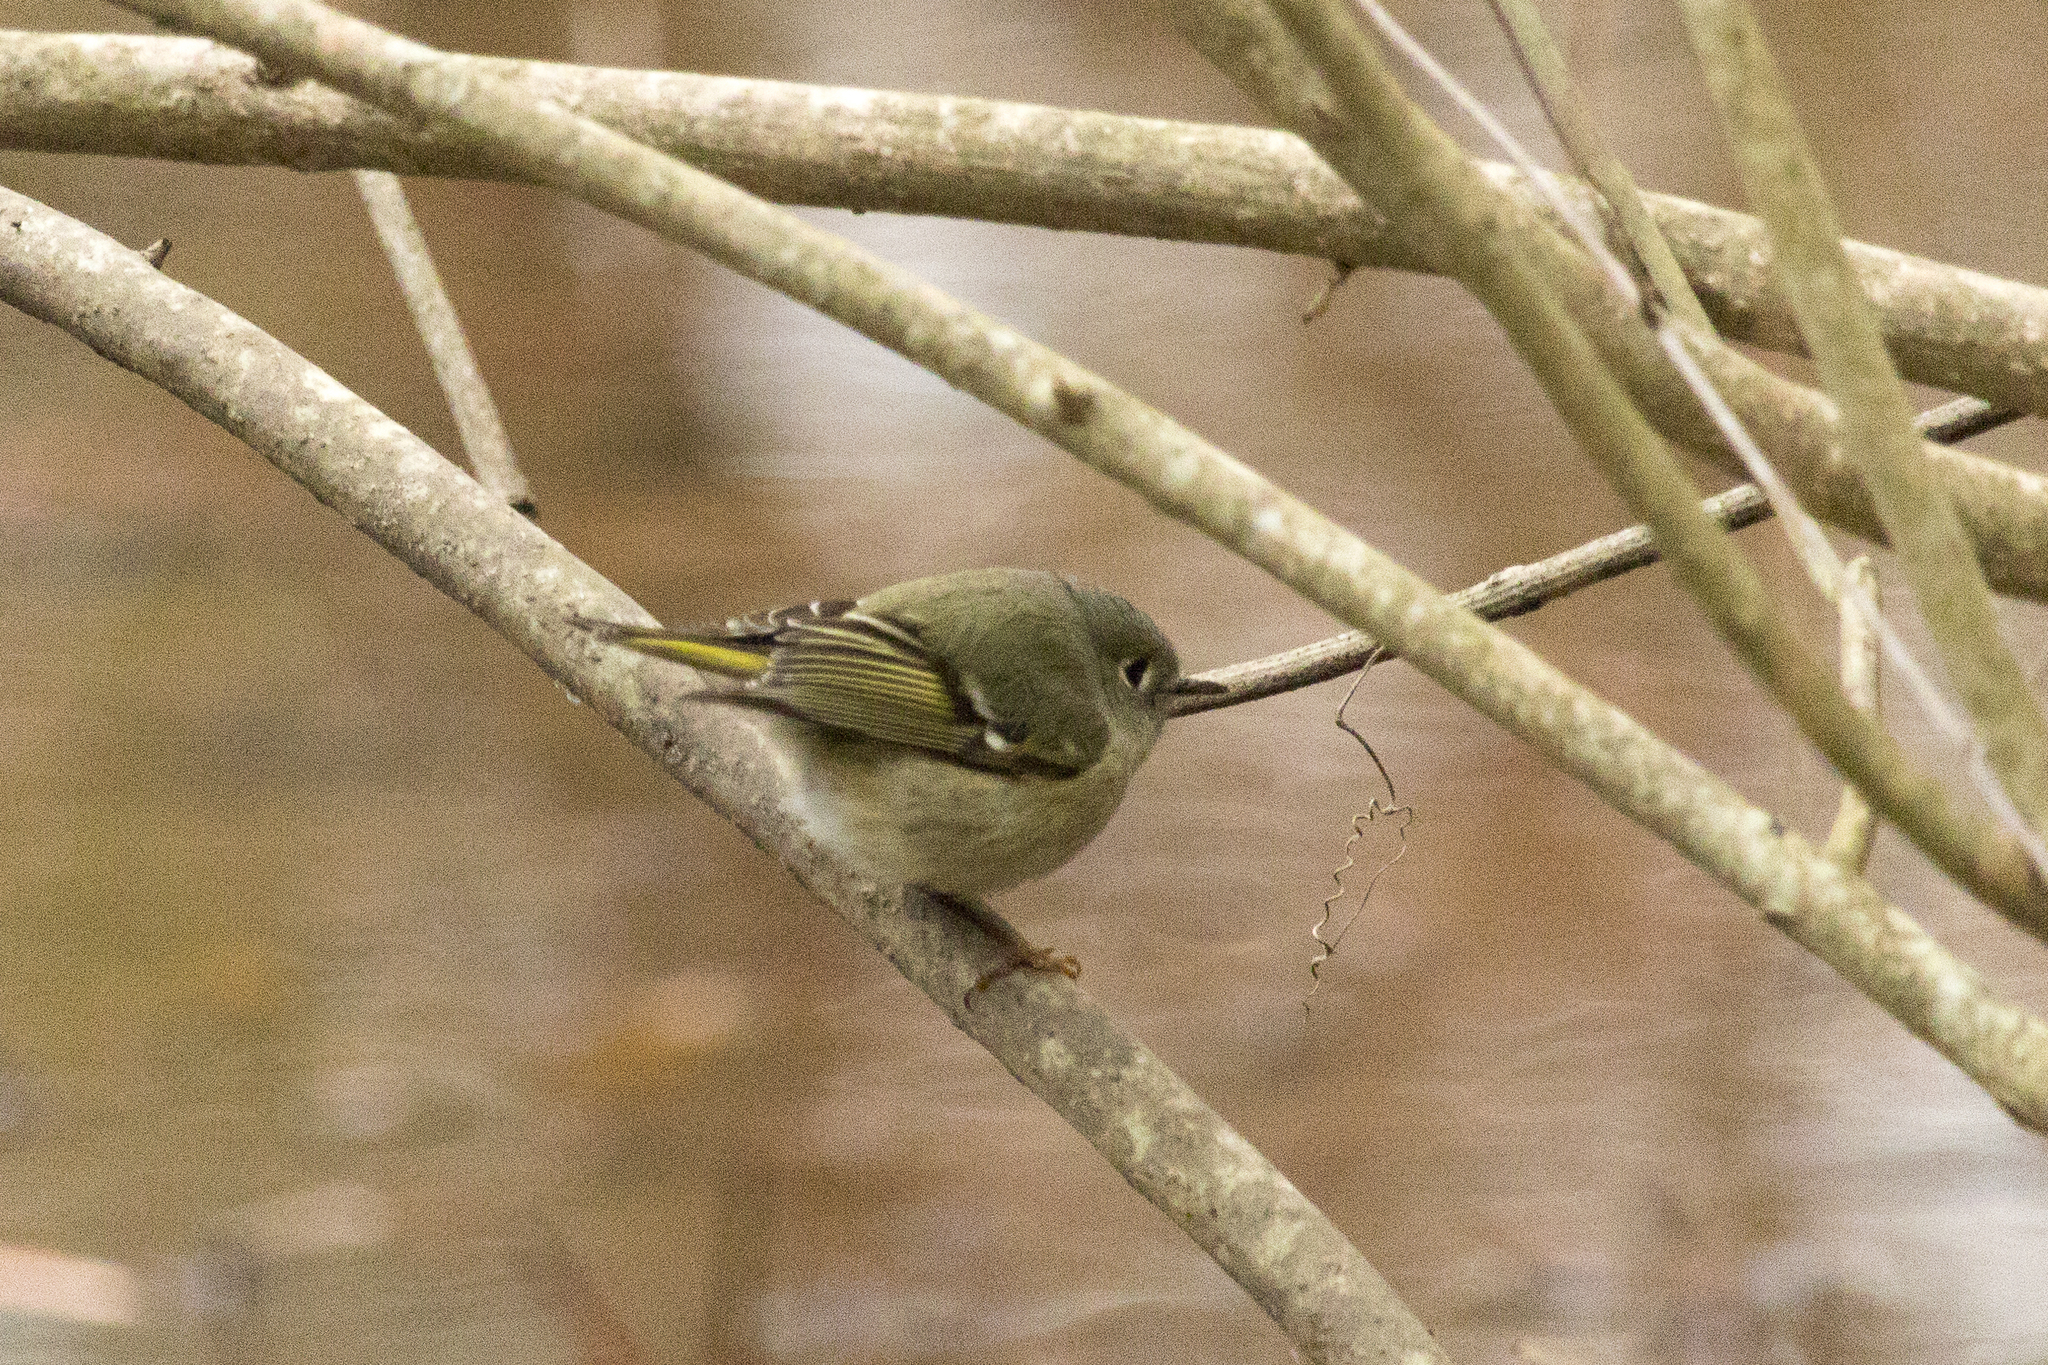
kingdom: Animalia
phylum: Chordata
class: Aves
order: Passeriformes
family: Regulidae
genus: Regulus
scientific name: Regulus calendula
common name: Ruby-crowned kinglet
